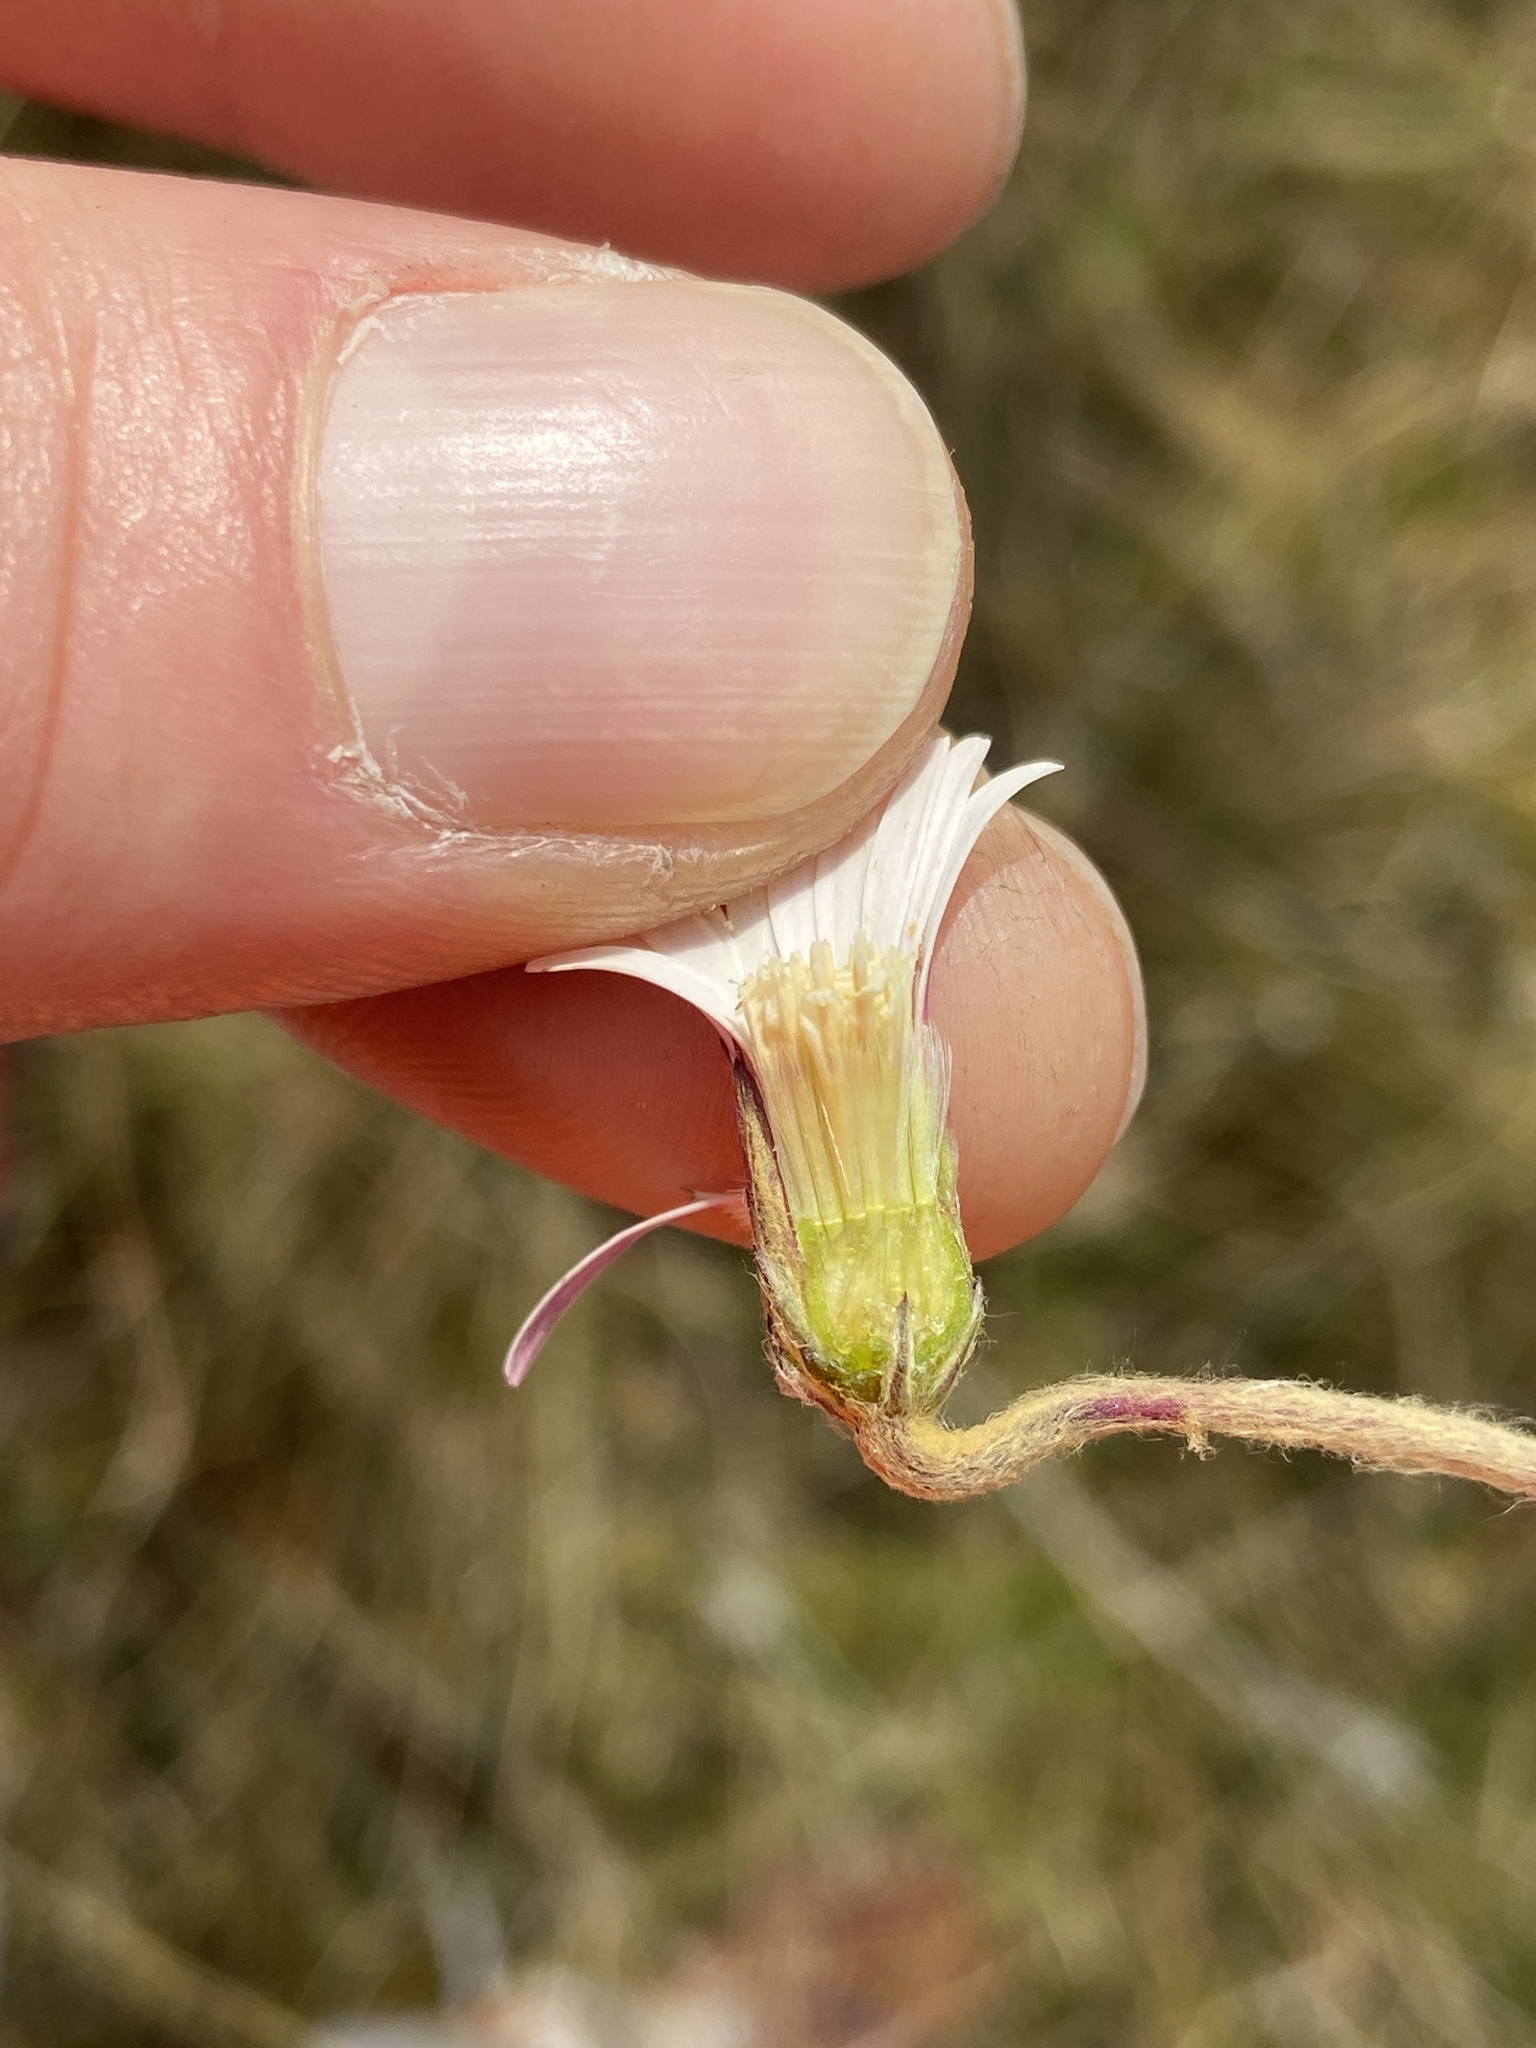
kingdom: Plantae
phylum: Tracheophyta
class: Magnoliopsida
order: Asterales
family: Asteraceae
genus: Chaptalia
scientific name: Chaptalia tomentosa
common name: Woolly sunbonnet
